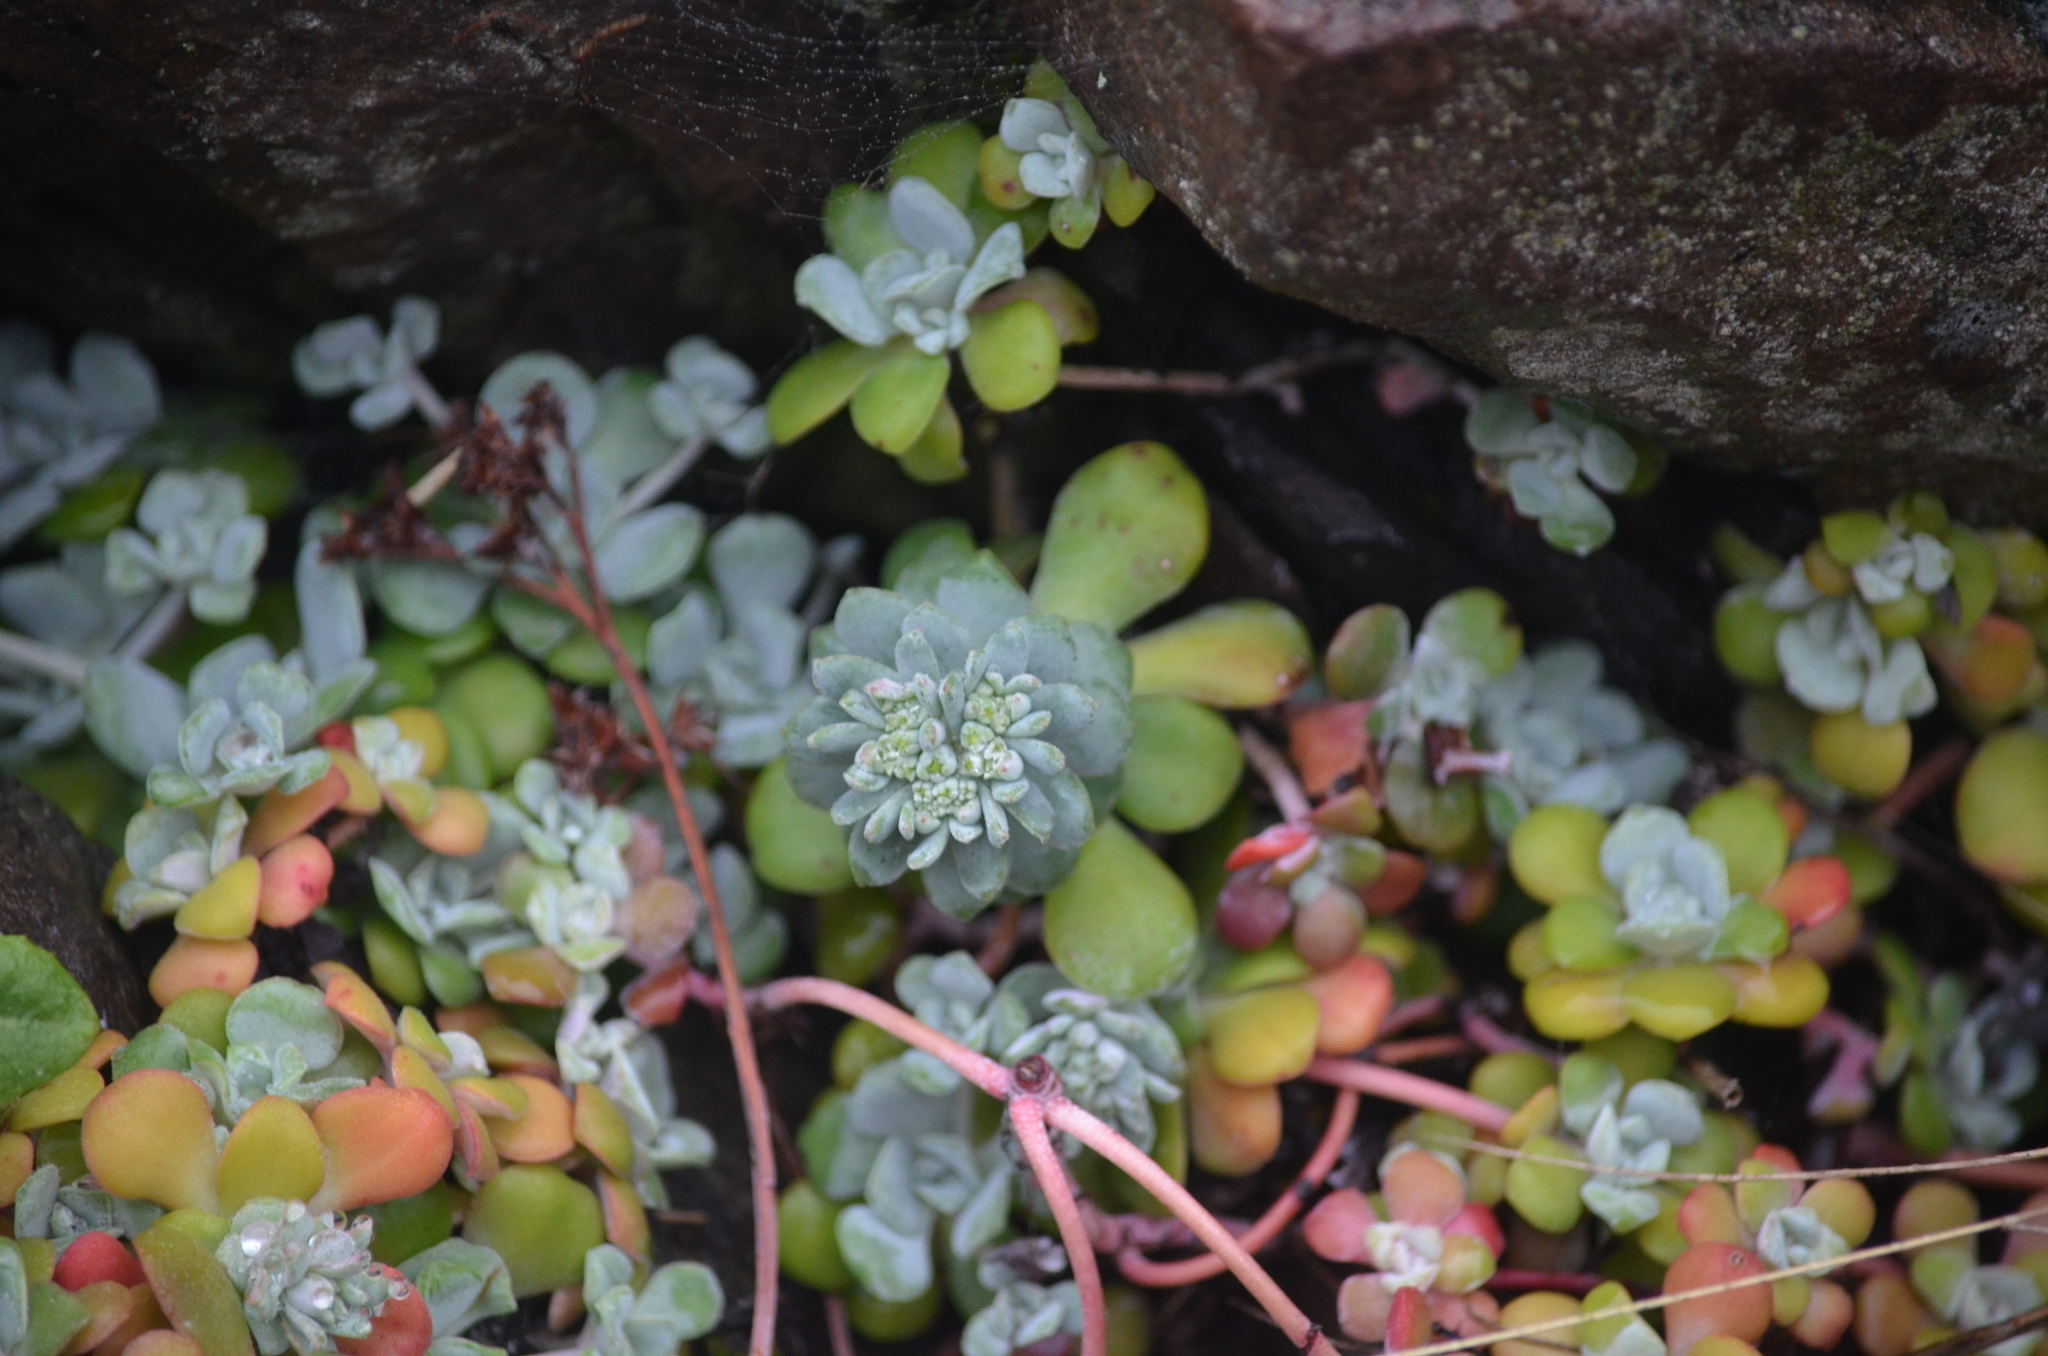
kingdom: Plantae
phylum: Tracheophyta
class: Magnoliopsida
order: Saxifragales
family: Crassulaceae
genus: Sedum
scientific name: Sedum spathulifolium
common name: Colorado stonecrop
